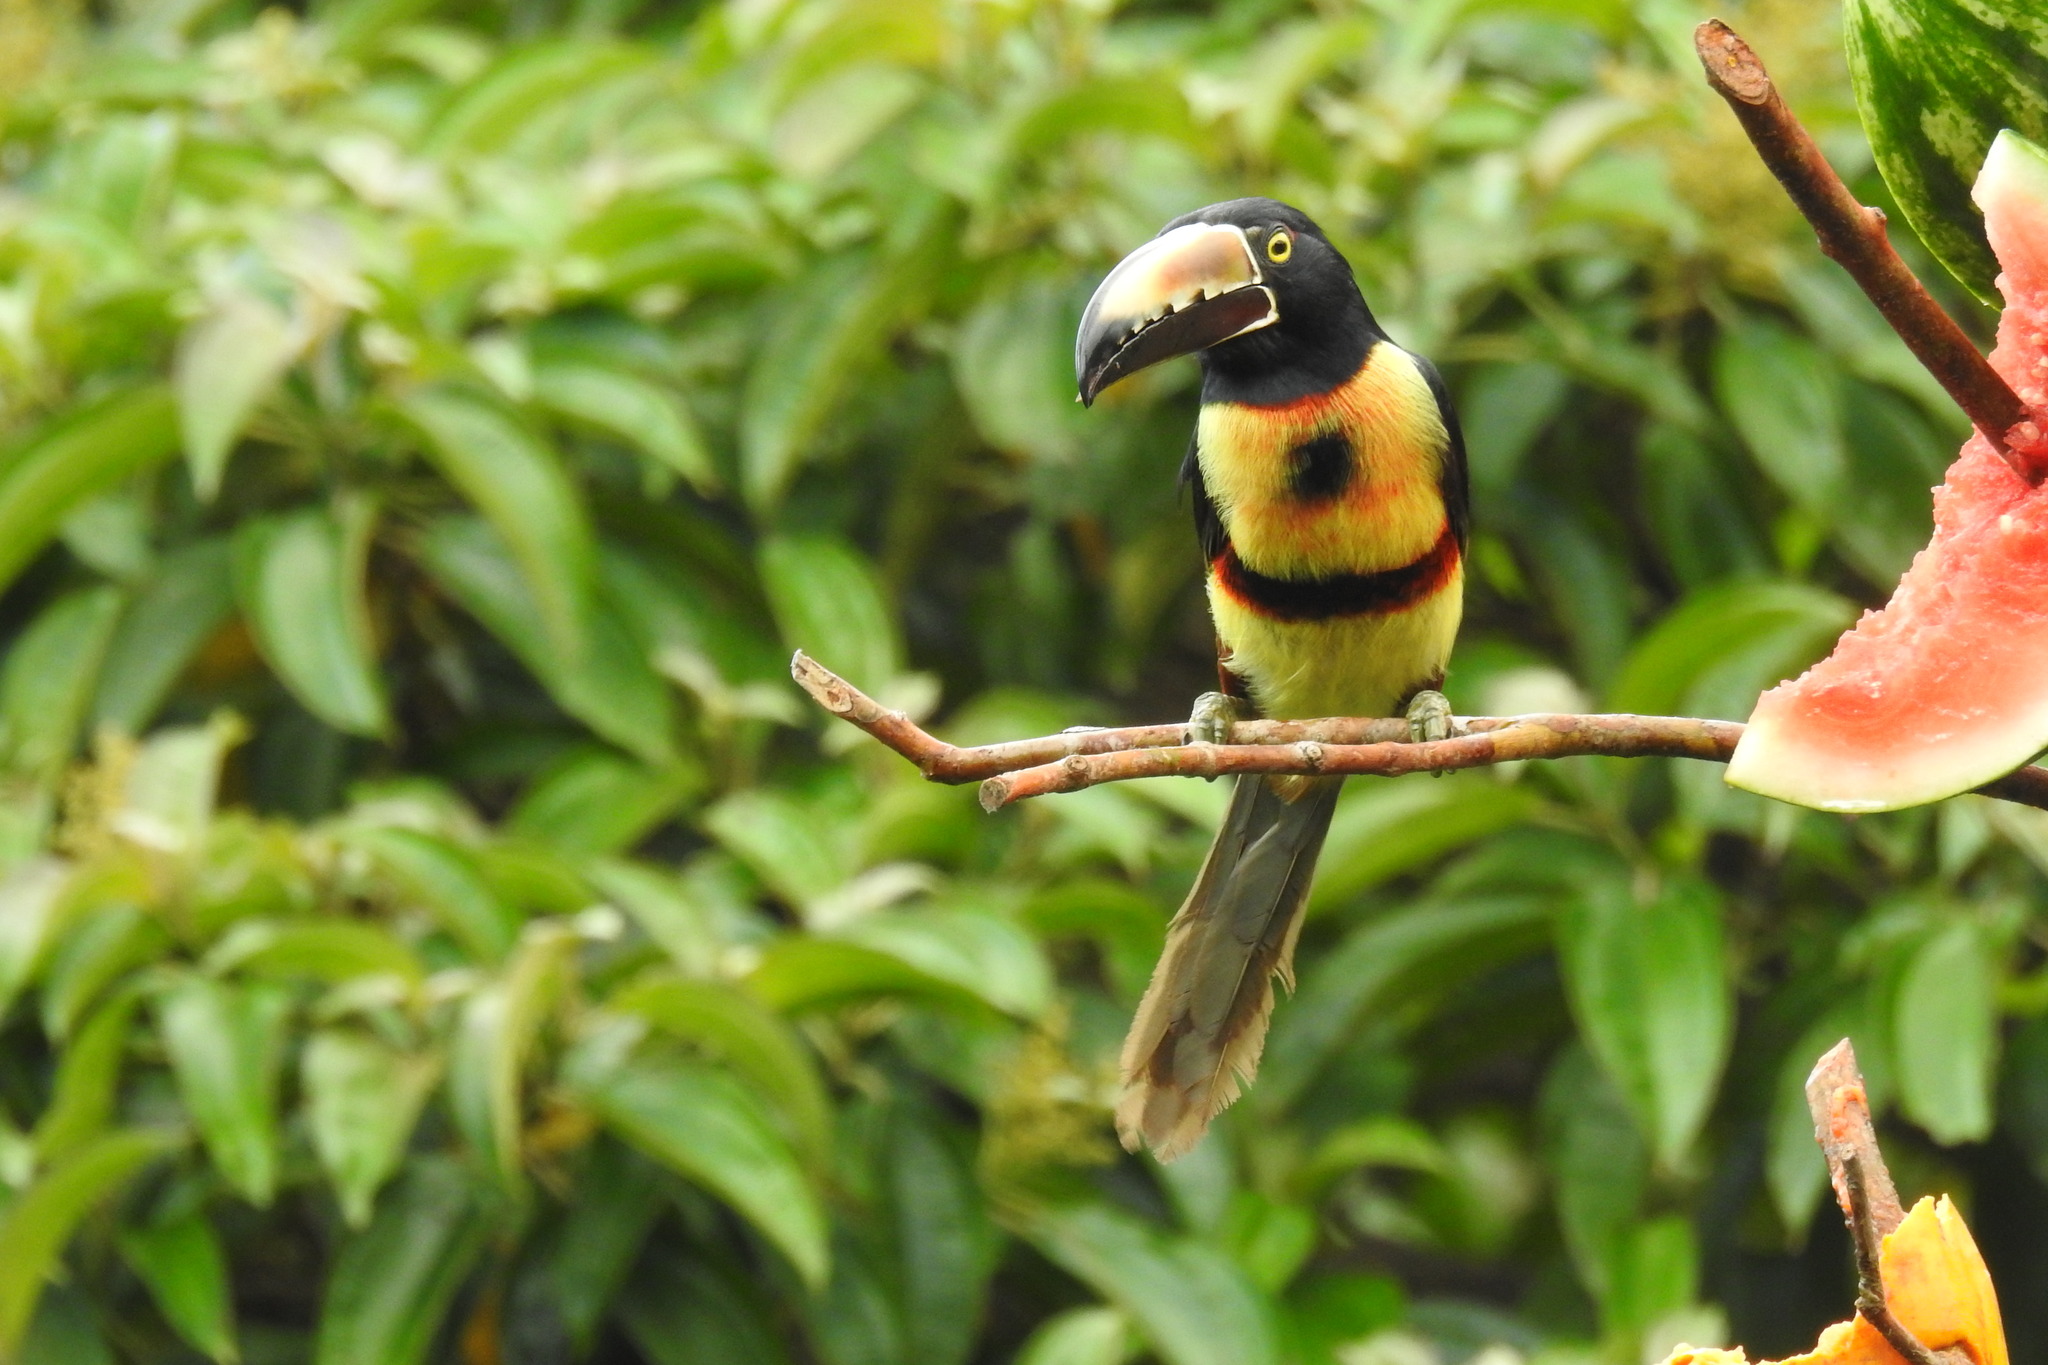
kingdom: Animalia
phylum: Chordata
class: Aves
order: Piciformes
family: Ramphastidae
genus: Pteroglossus
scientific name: Pteroglossus torquatus
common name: Collared aracari
